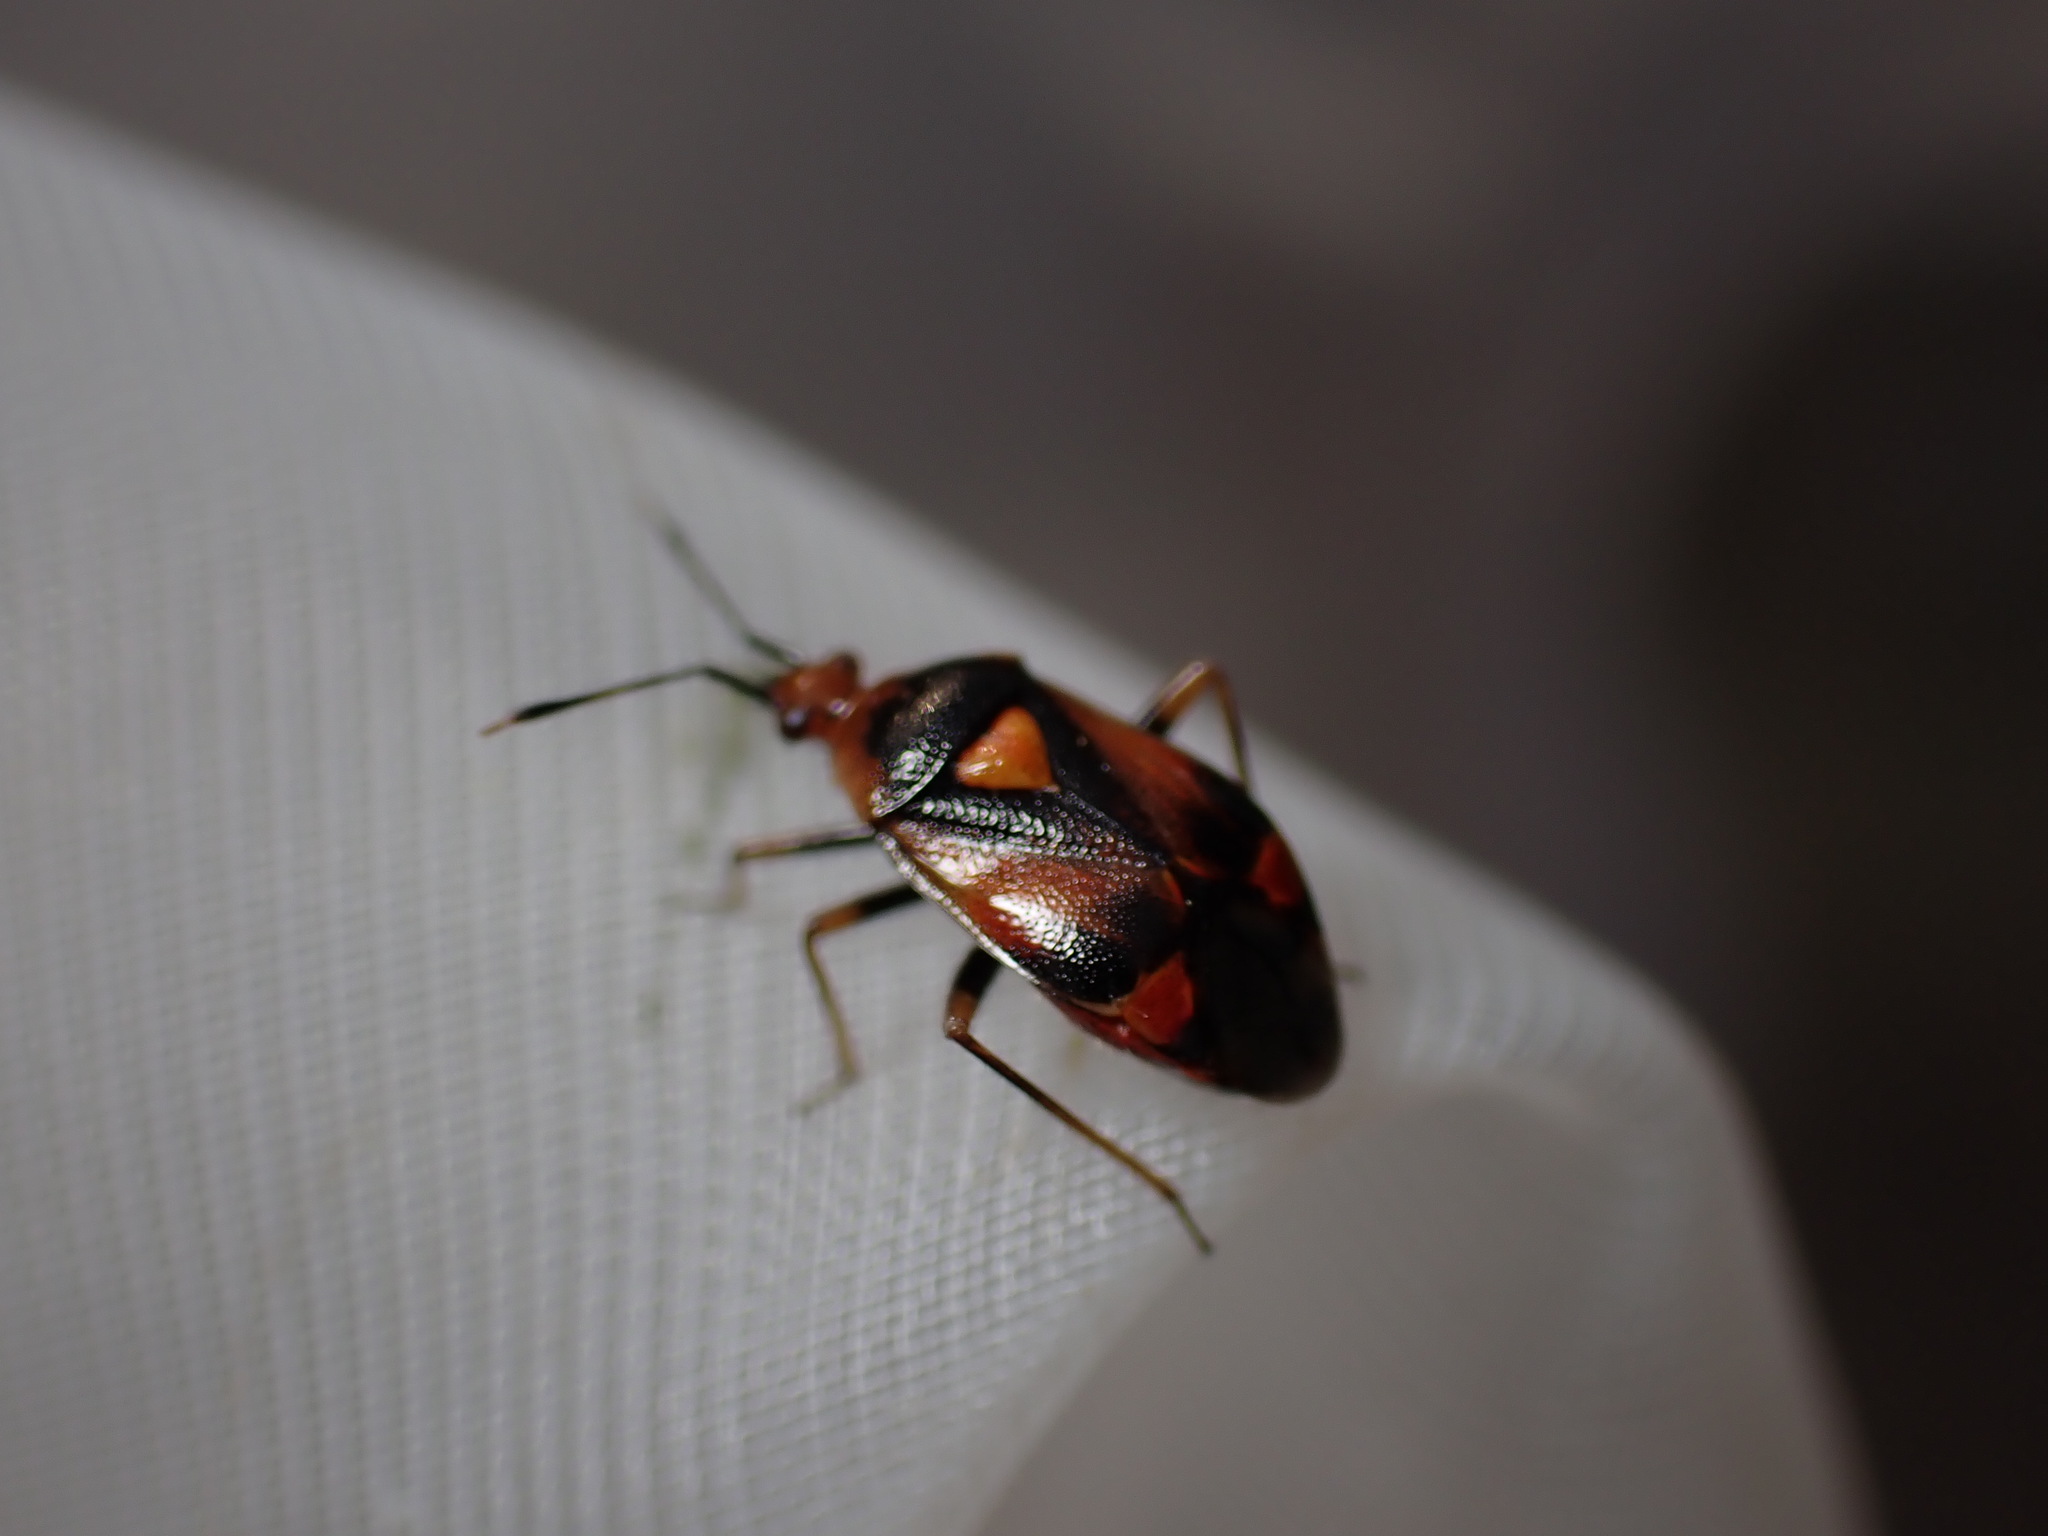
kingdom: Animalia
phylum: Arthropoda
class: Insecta
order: Hemiptera
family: Miridae
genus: Deraeocoris
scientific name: Deraeocoris schach
